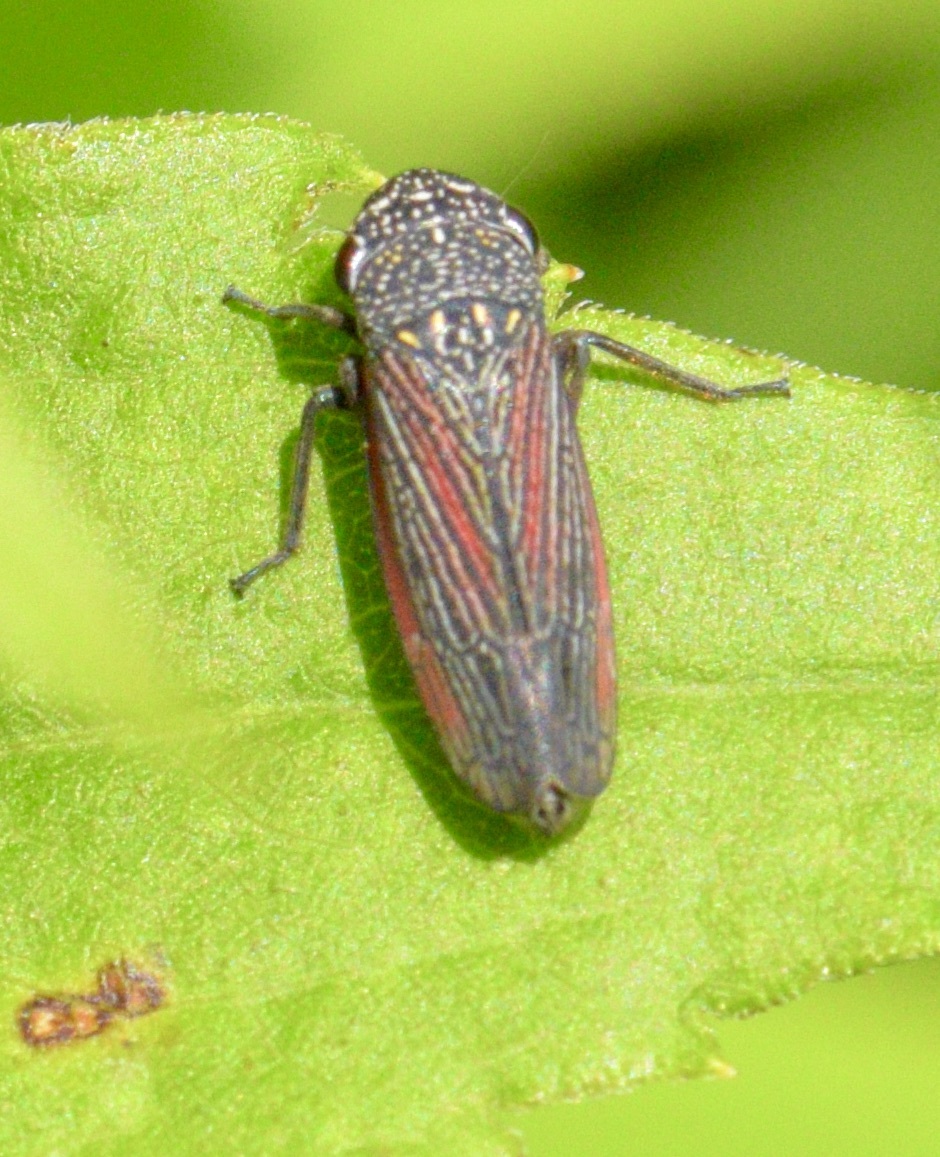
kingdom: Animalia
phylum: Arthropoda
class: Insecta
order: Hemiptera
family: Cicadellidae
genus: Cuerna
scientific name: Cuerna striata
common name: Striped leafhopper
